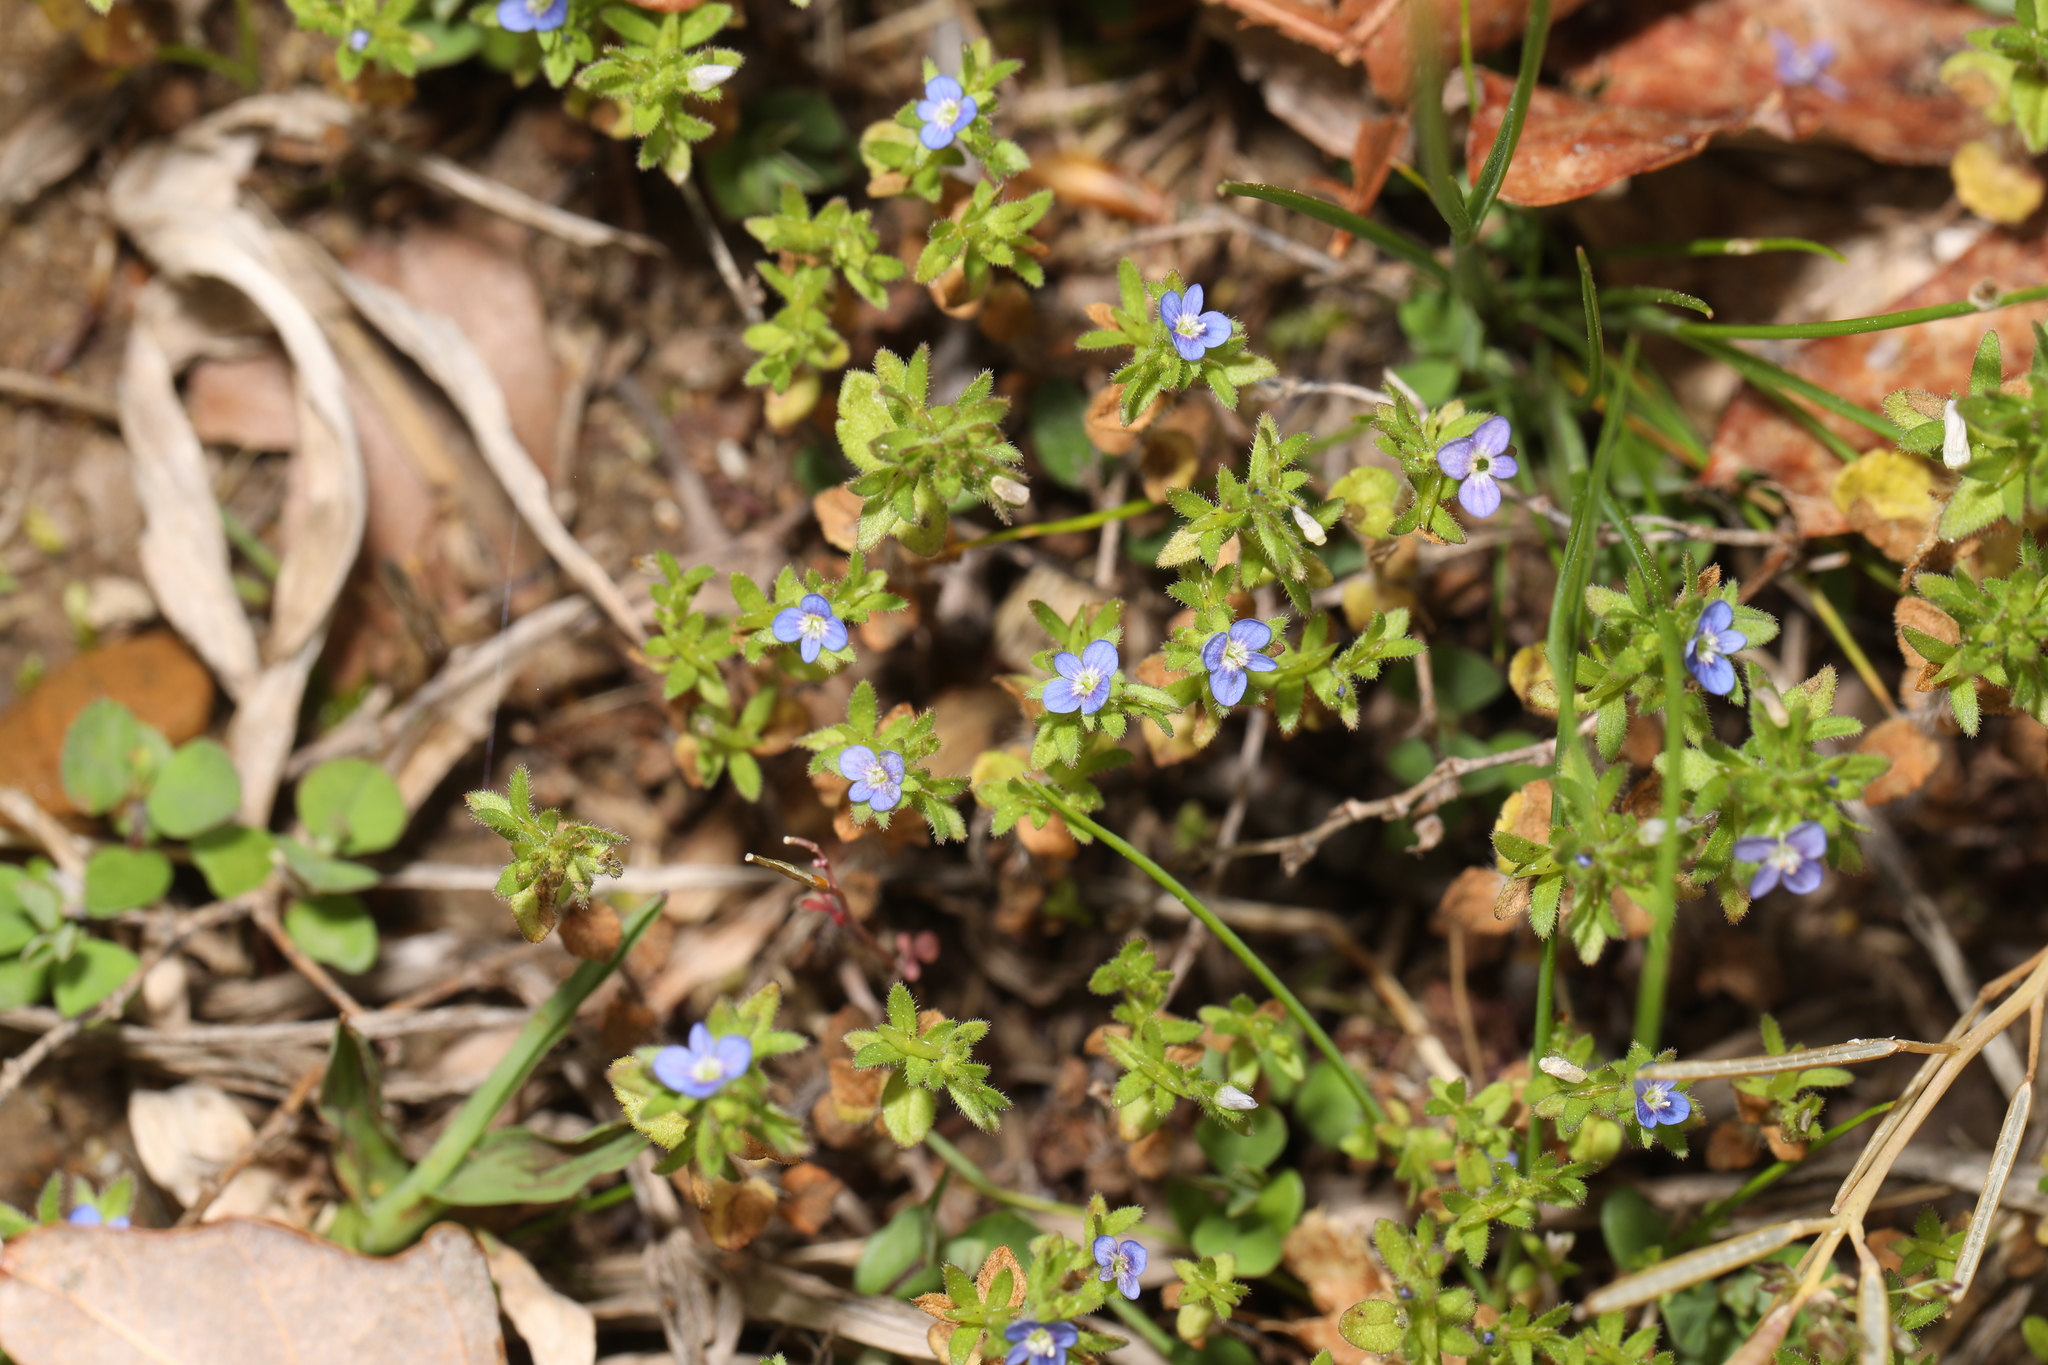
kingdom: Plantae
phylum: Tracheophyta
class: Magnoliopsida
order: Lamiales
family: Plantaginaceae
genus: Veronica
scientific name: Veronica arvensis
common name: Corn speedwell
